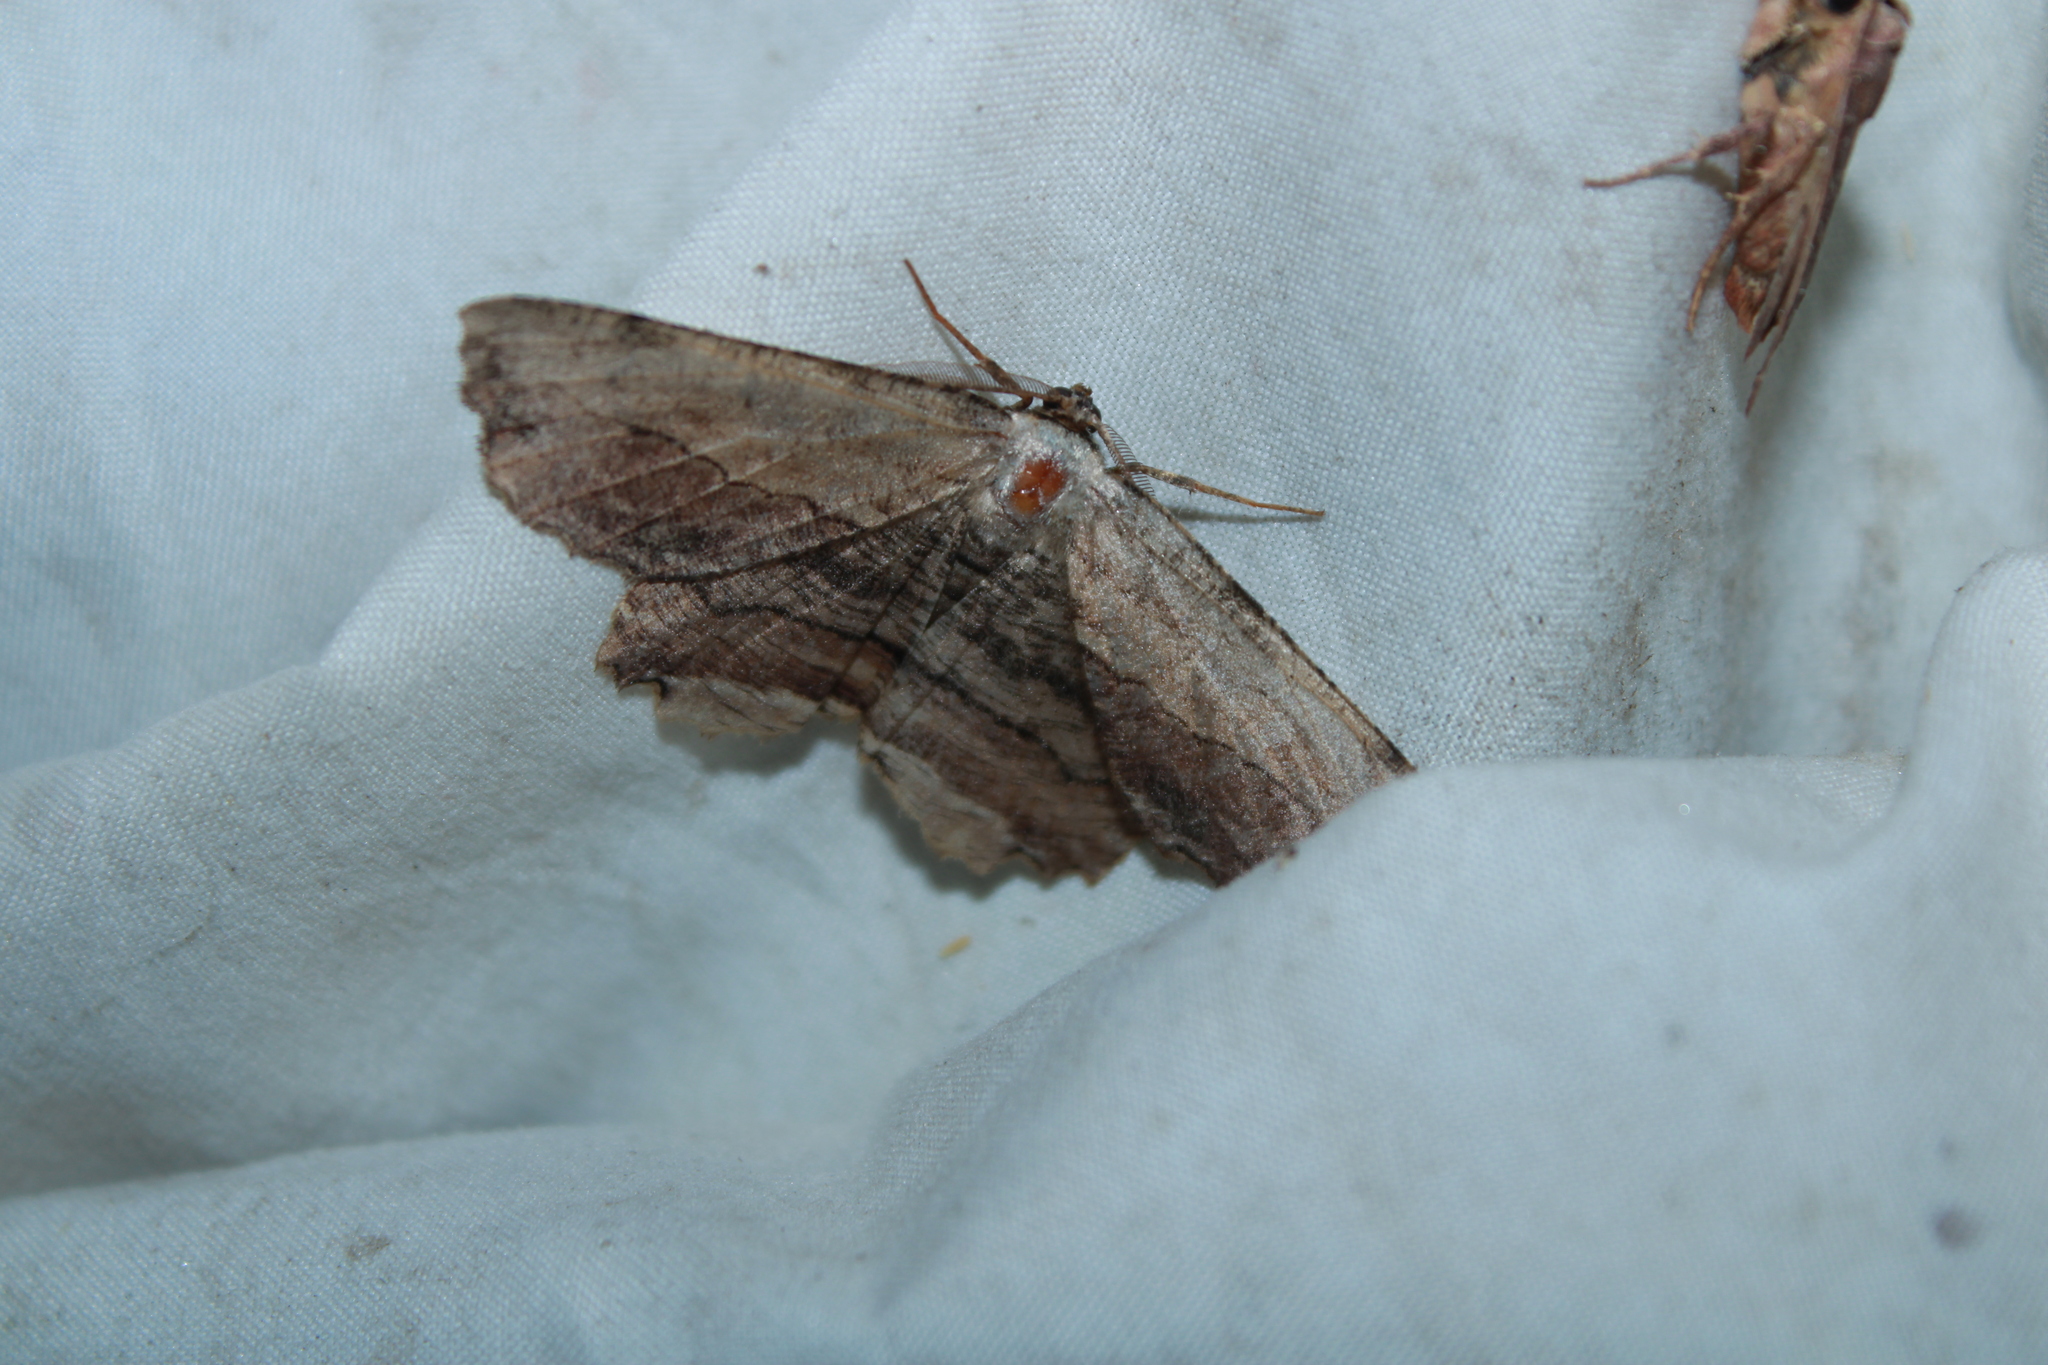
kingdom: Animalia
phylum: Arthropoda
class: Insecta
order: Lepidoptera
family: Geometridae
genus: Lytrosis
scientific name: Lytrosis unitaria
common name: Common lytrosis
